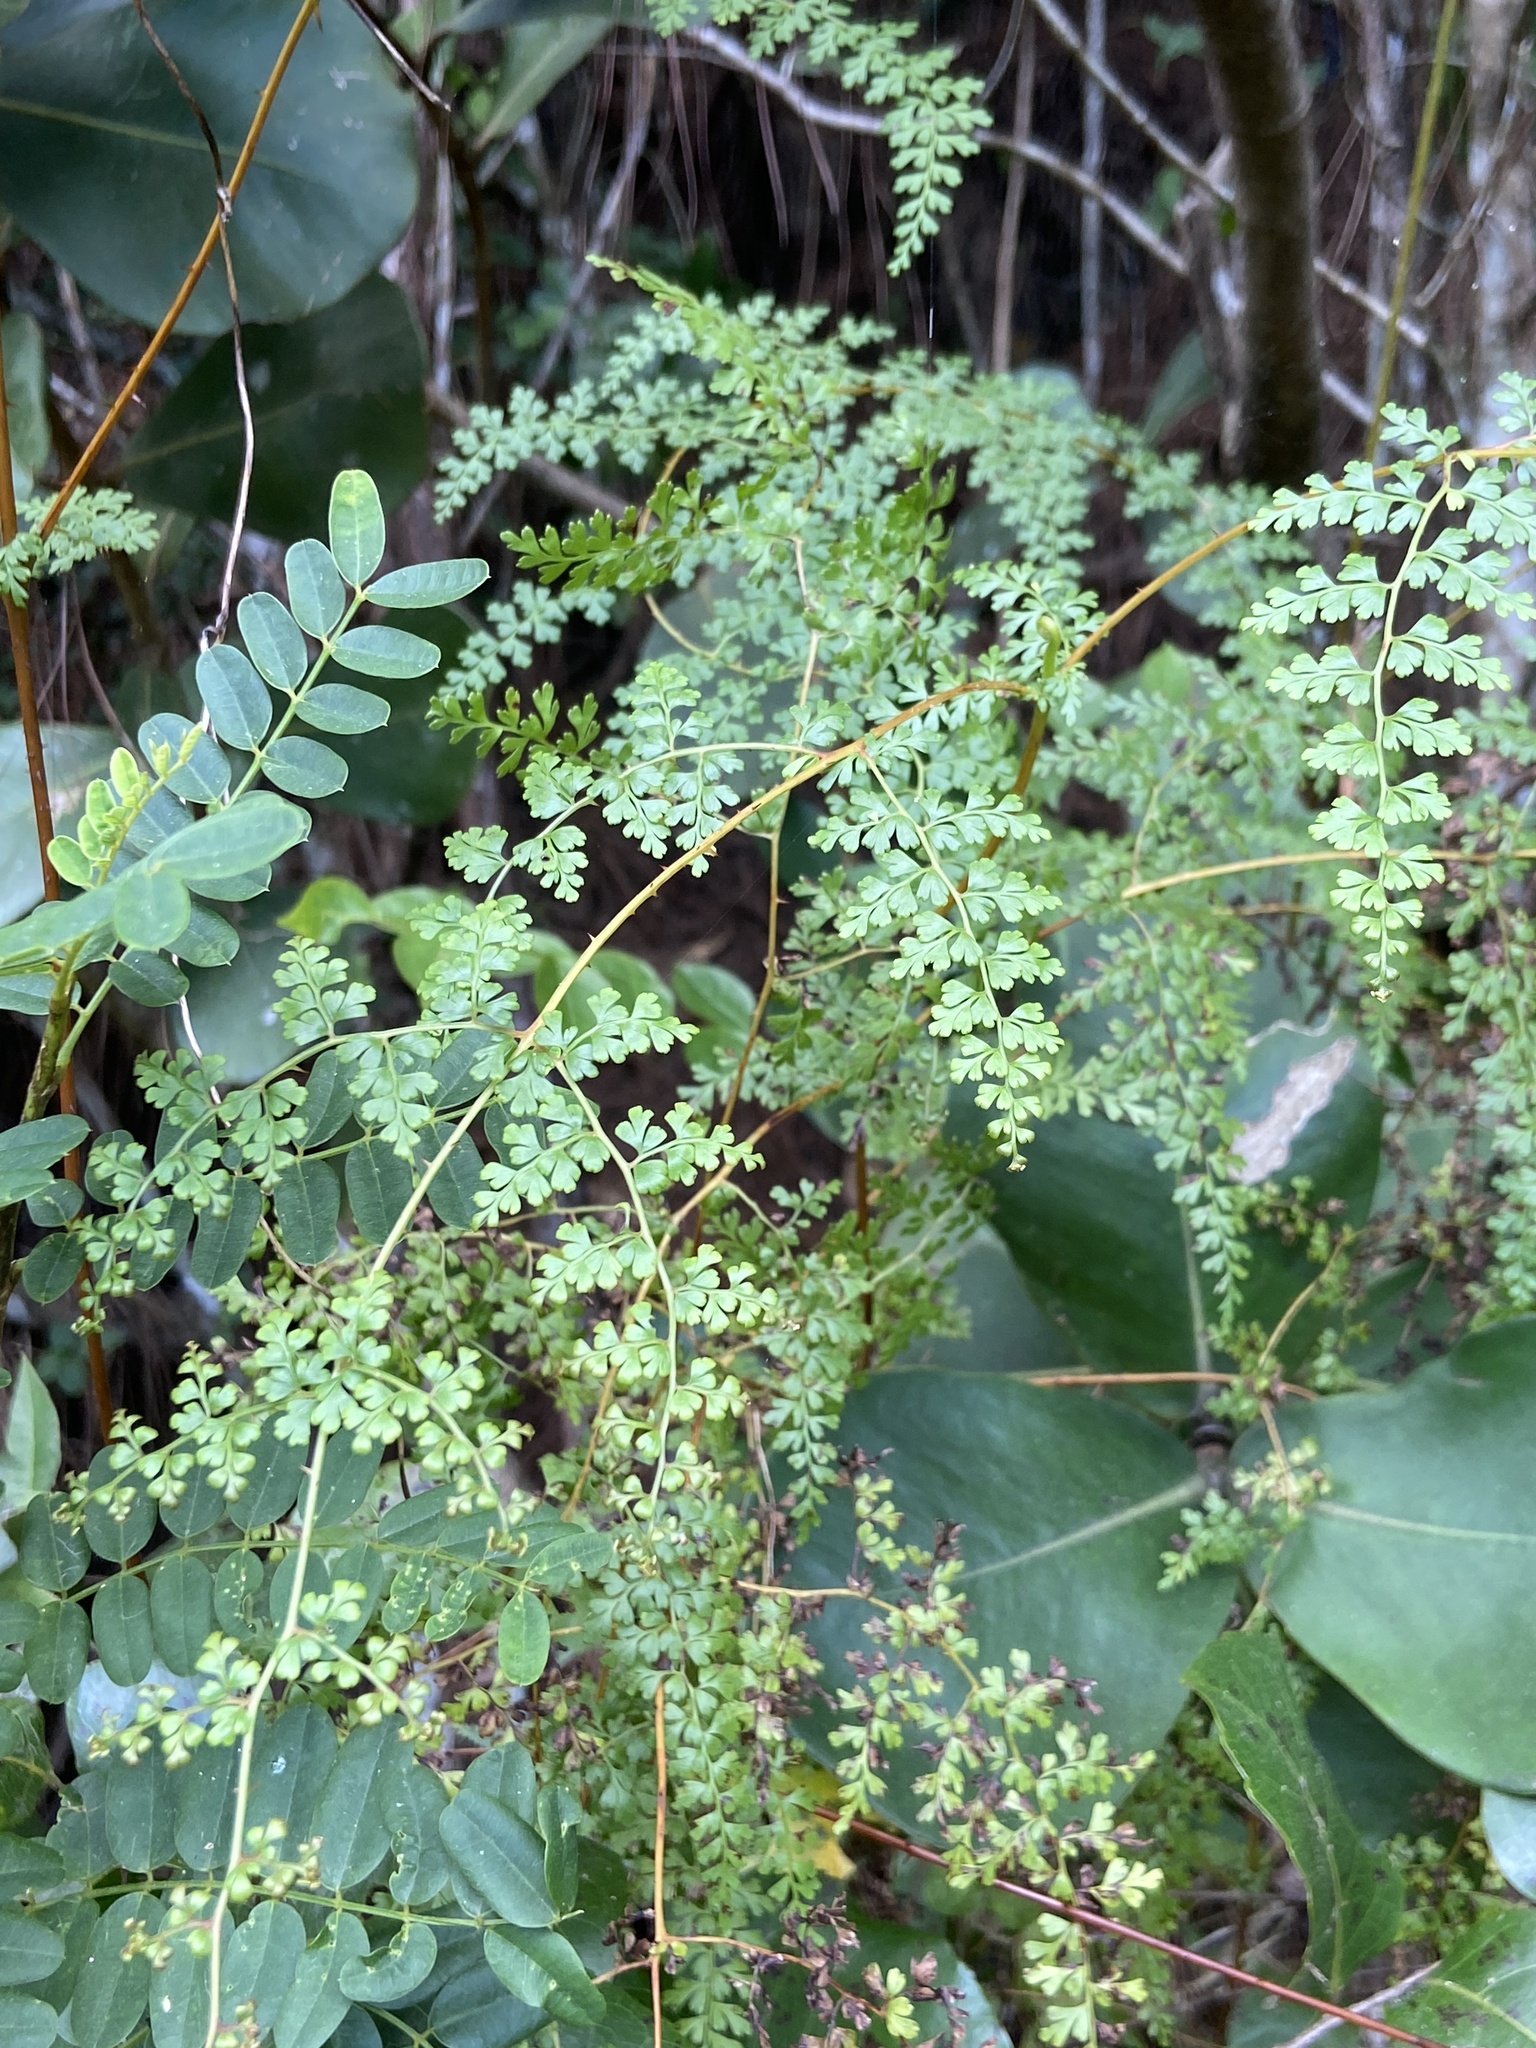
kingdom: Plantae
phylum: Tracheophyta
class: Polypodiopsida
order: Polypodiales
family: Lindsaeaceae
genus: Odontosoria
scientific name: Odontosoria aculeata
